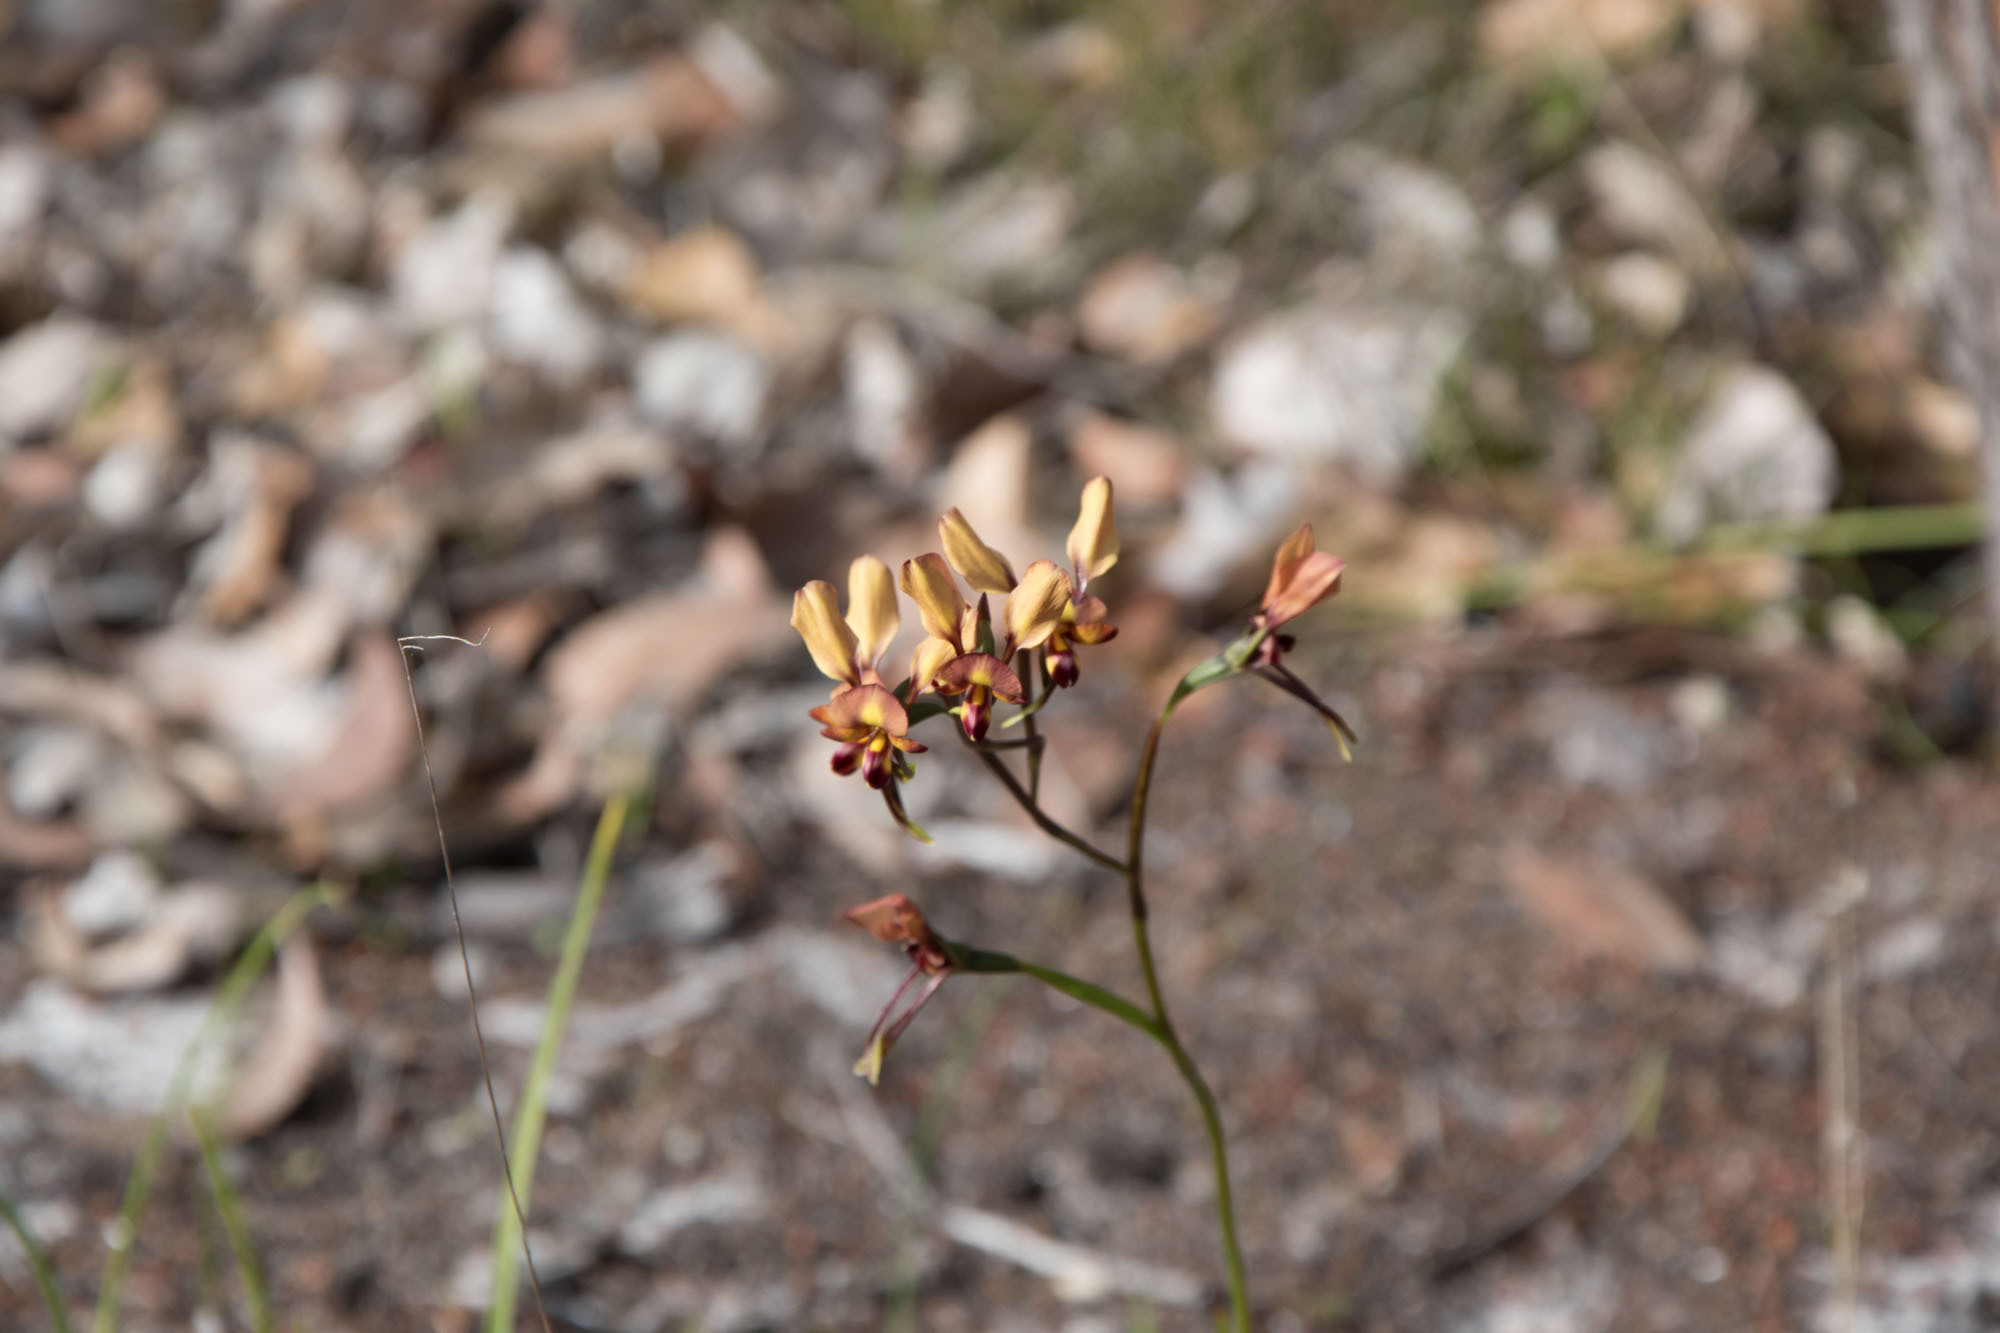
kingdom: Plantae
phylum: Tracheophyta
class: Liliopsida
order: Asparagales
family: Orchidaceae
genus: Diuris
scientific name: Diuris porphyrochila
